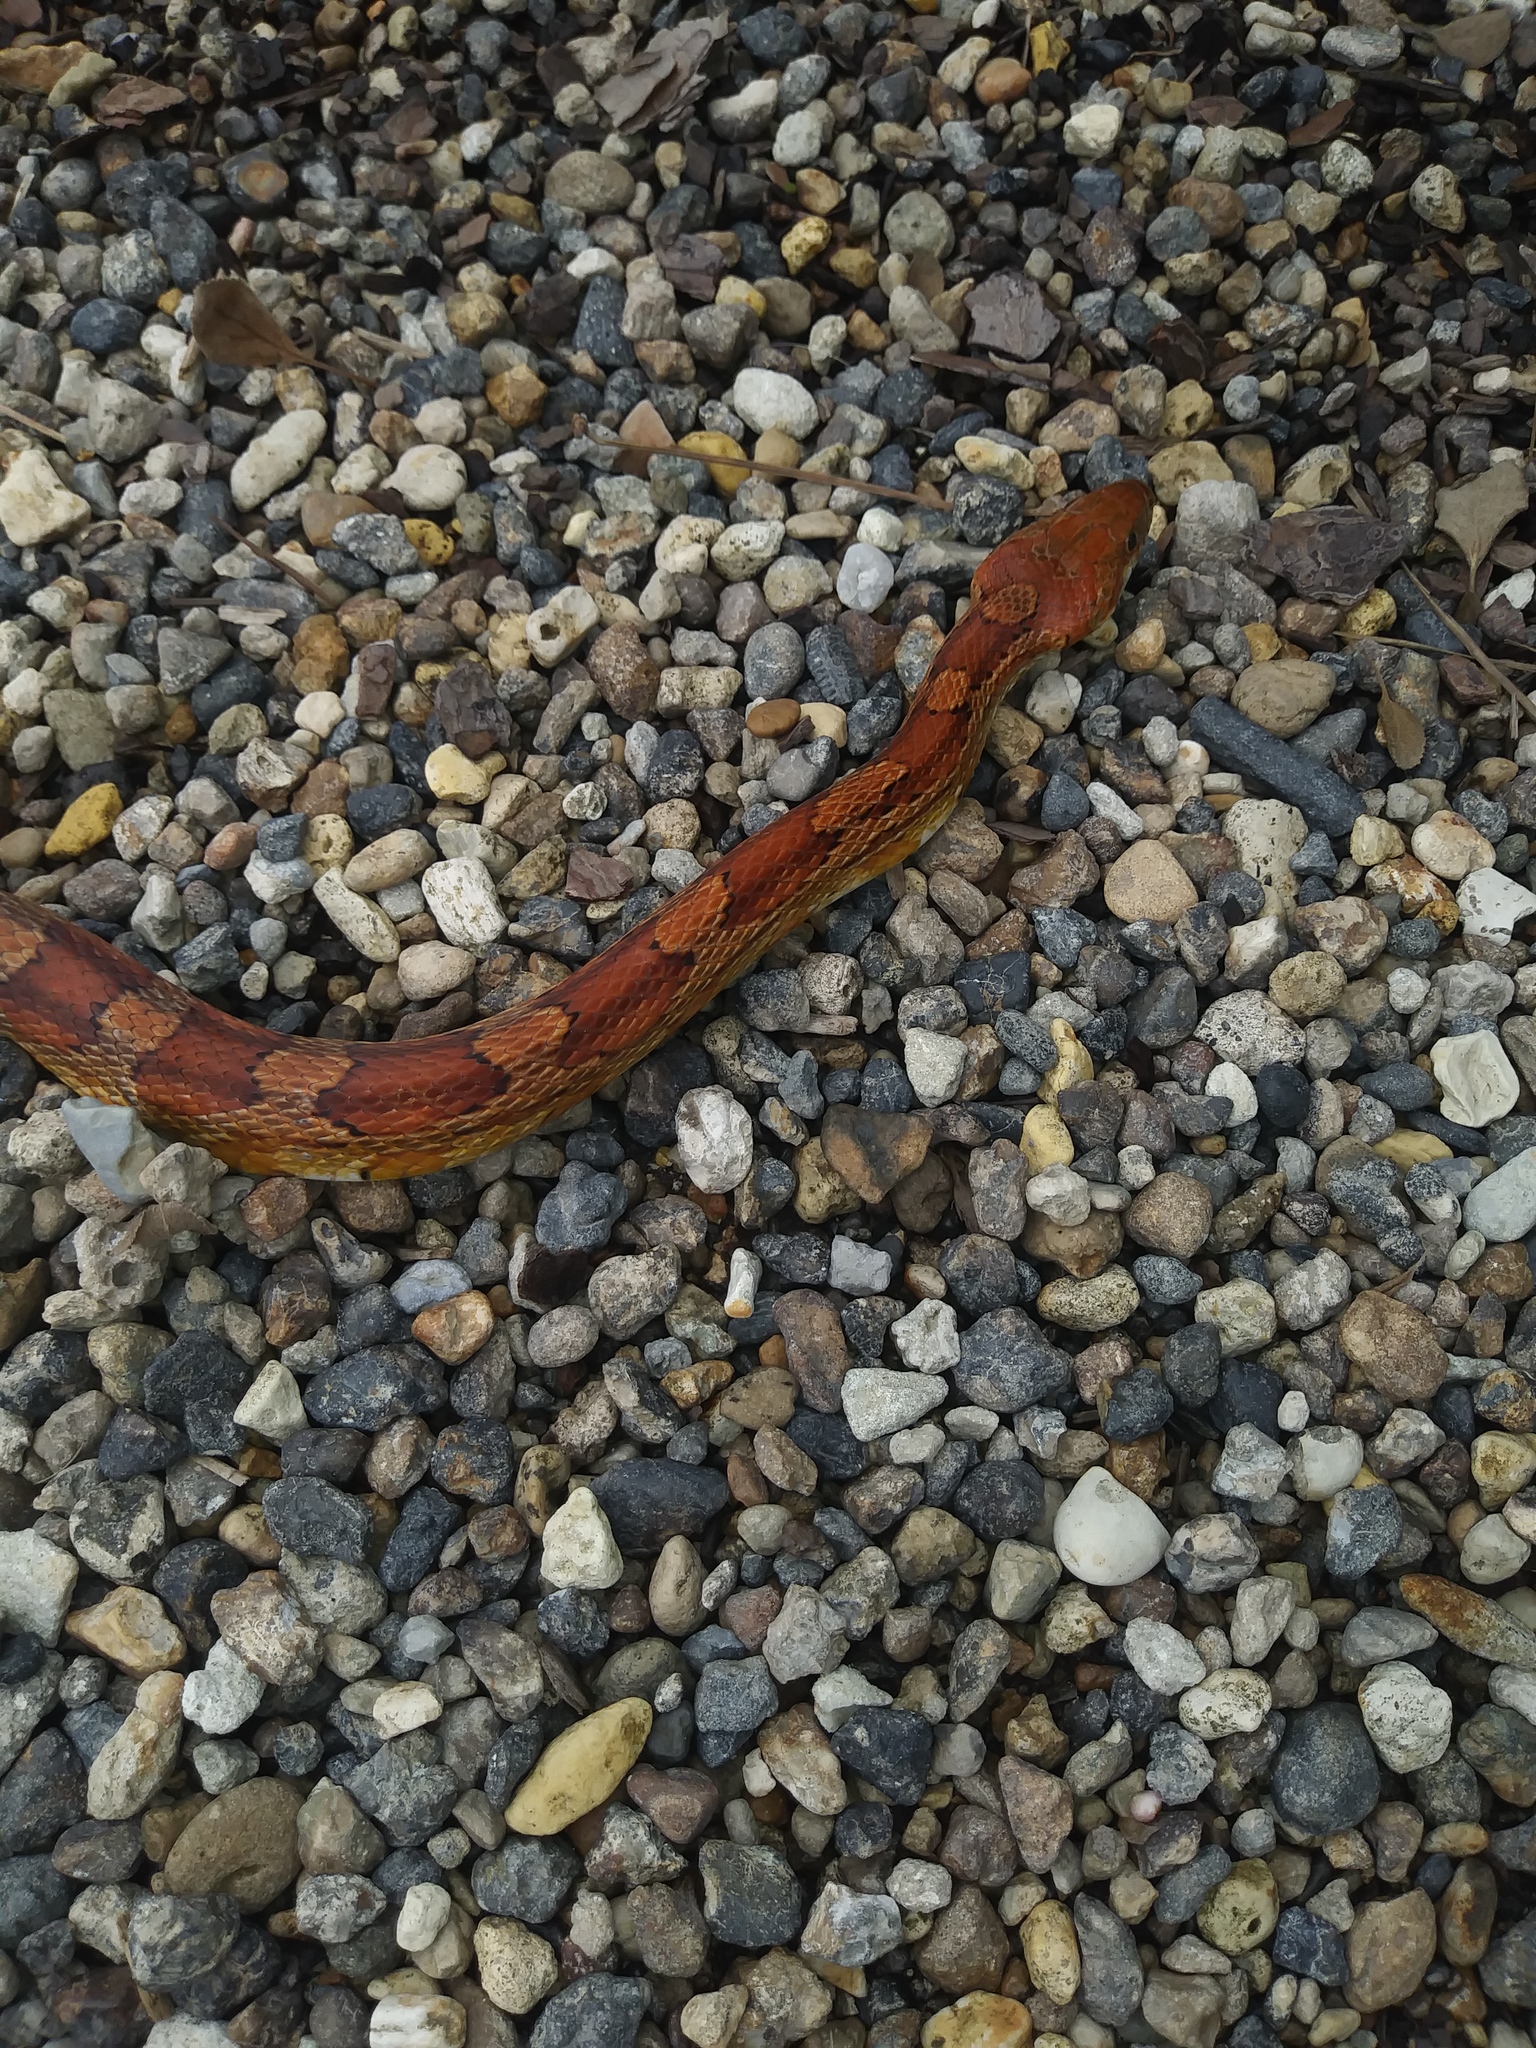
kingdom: Animalia
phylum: Chordata
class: Squamata
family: Colubridae
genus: Pantherophis
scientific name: Pantherophis guttatus
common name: Red cornsnake
